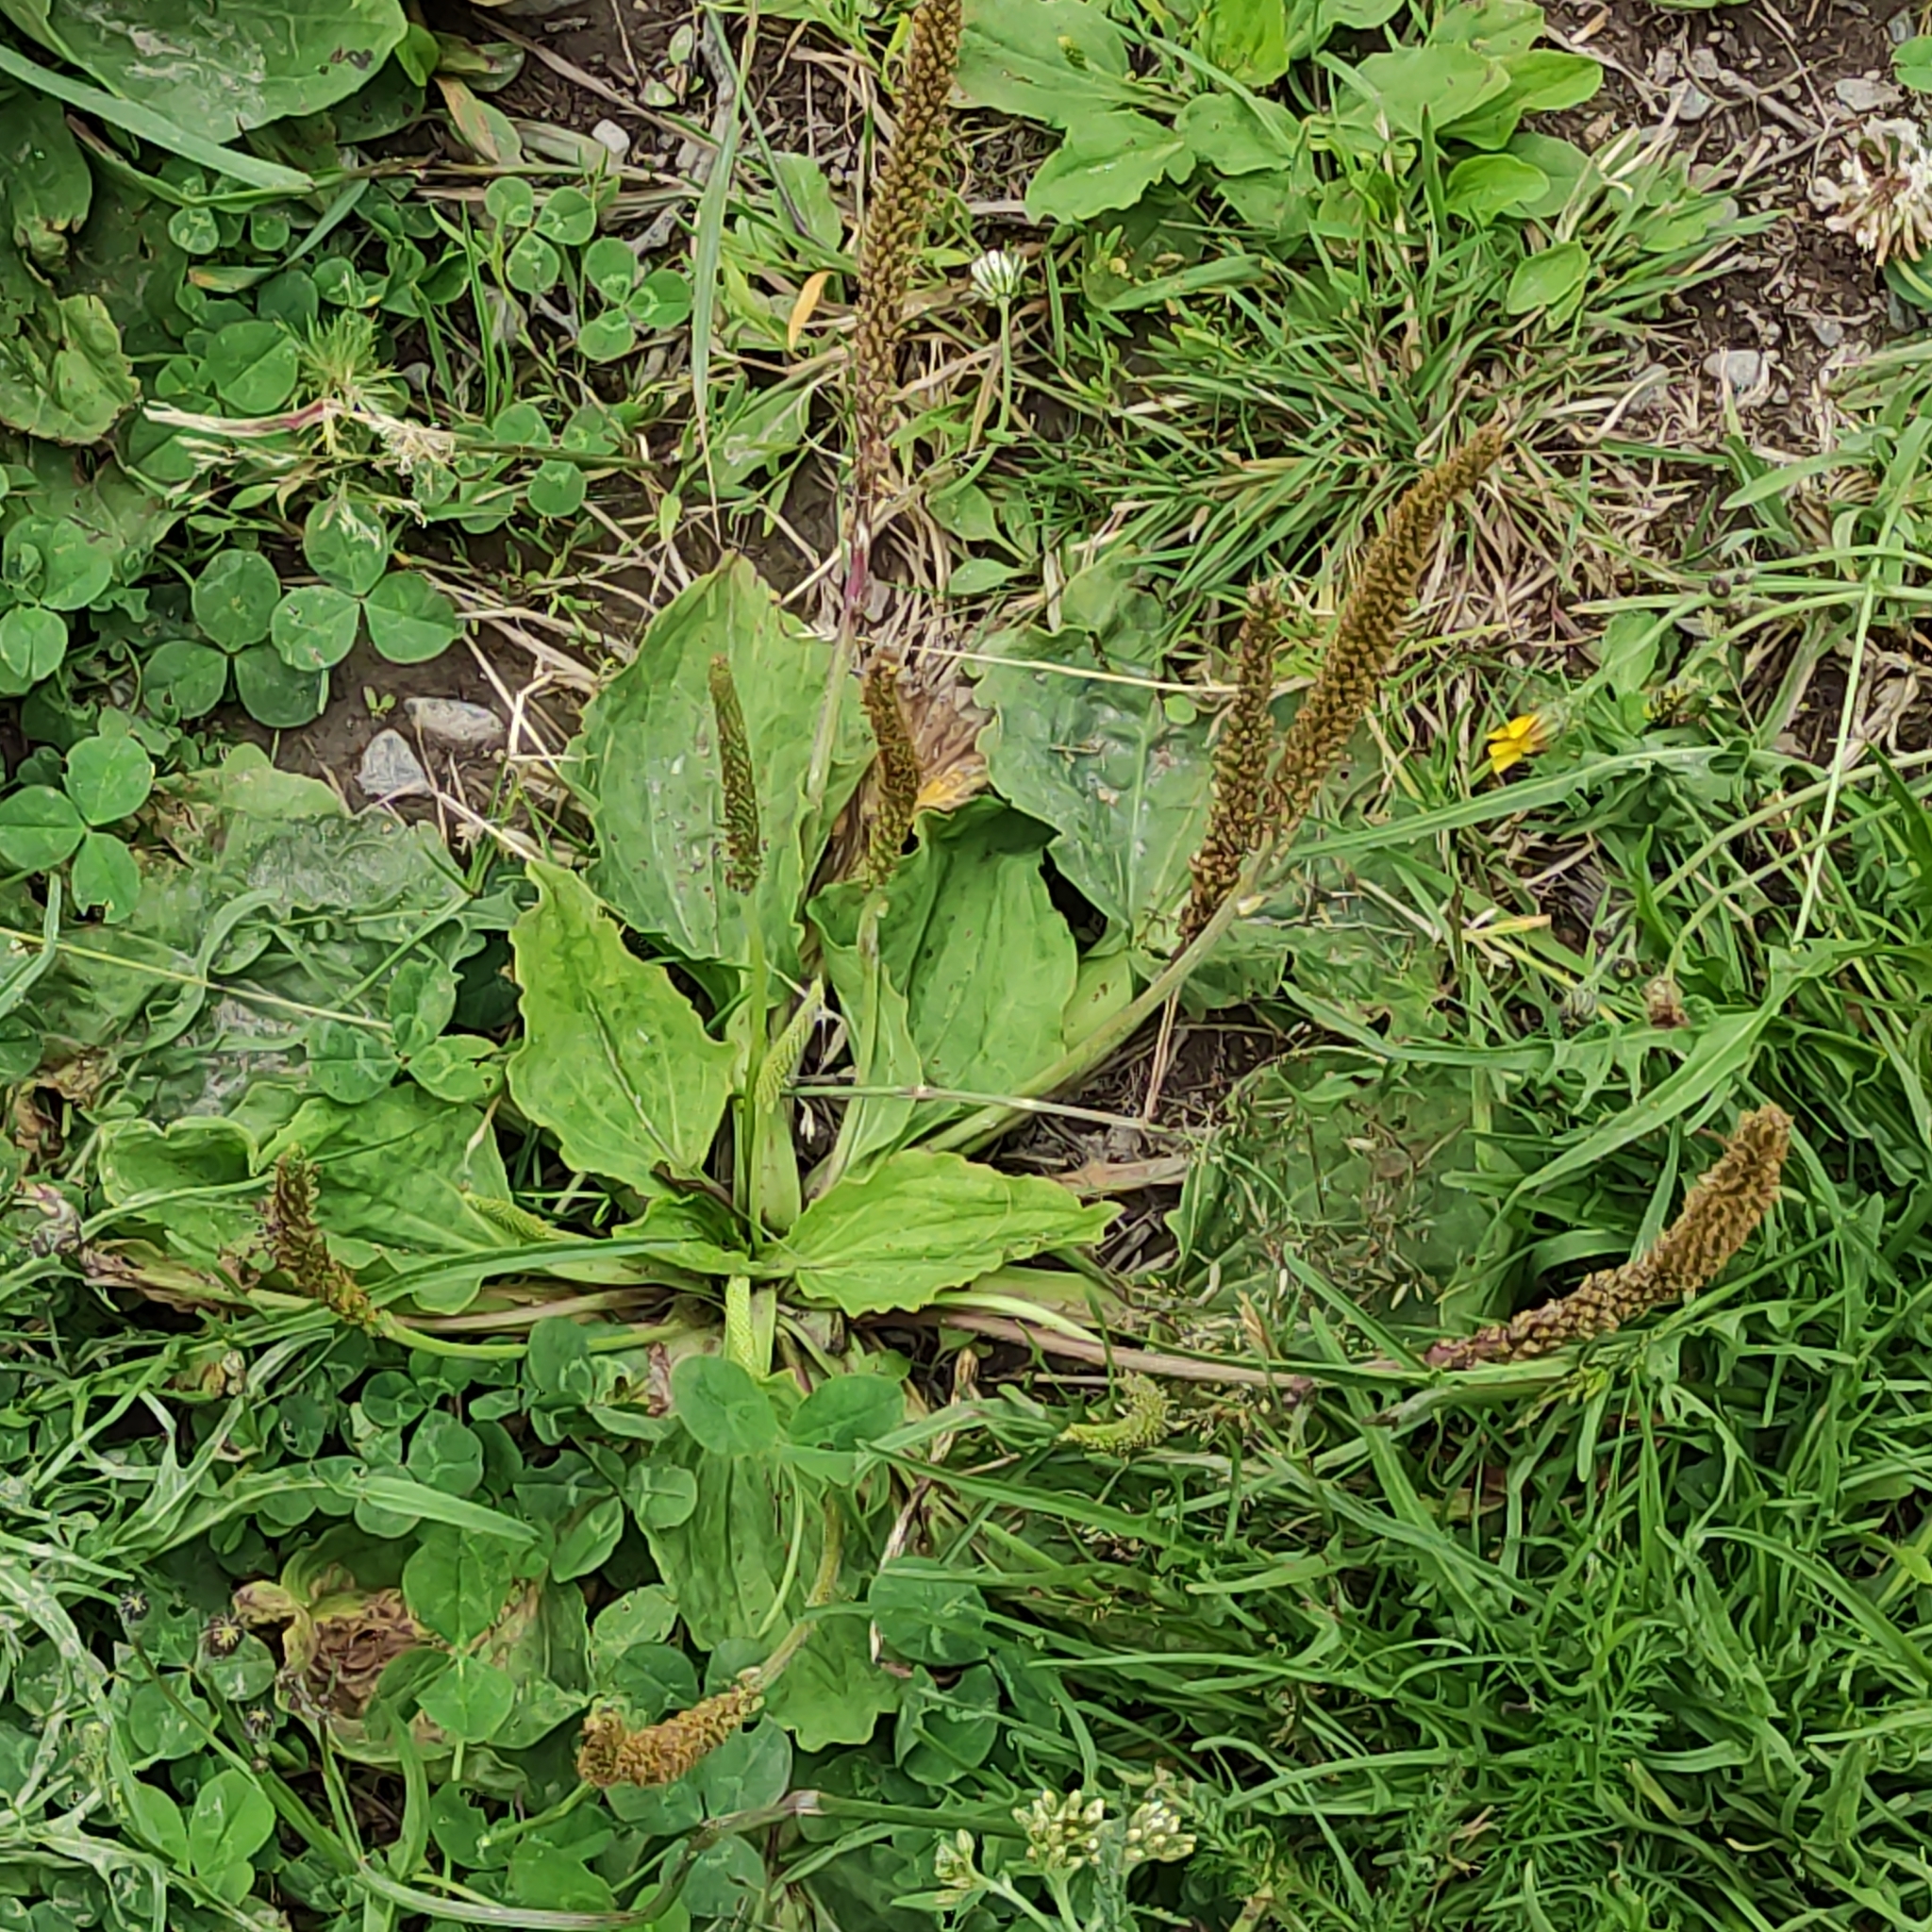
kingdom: Plantae
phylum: Tracheophyta
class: Magnoliopsida
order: Lamiales
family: Plantaginaceae
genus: Plantago
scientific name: Plantago major
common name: Common plantain
